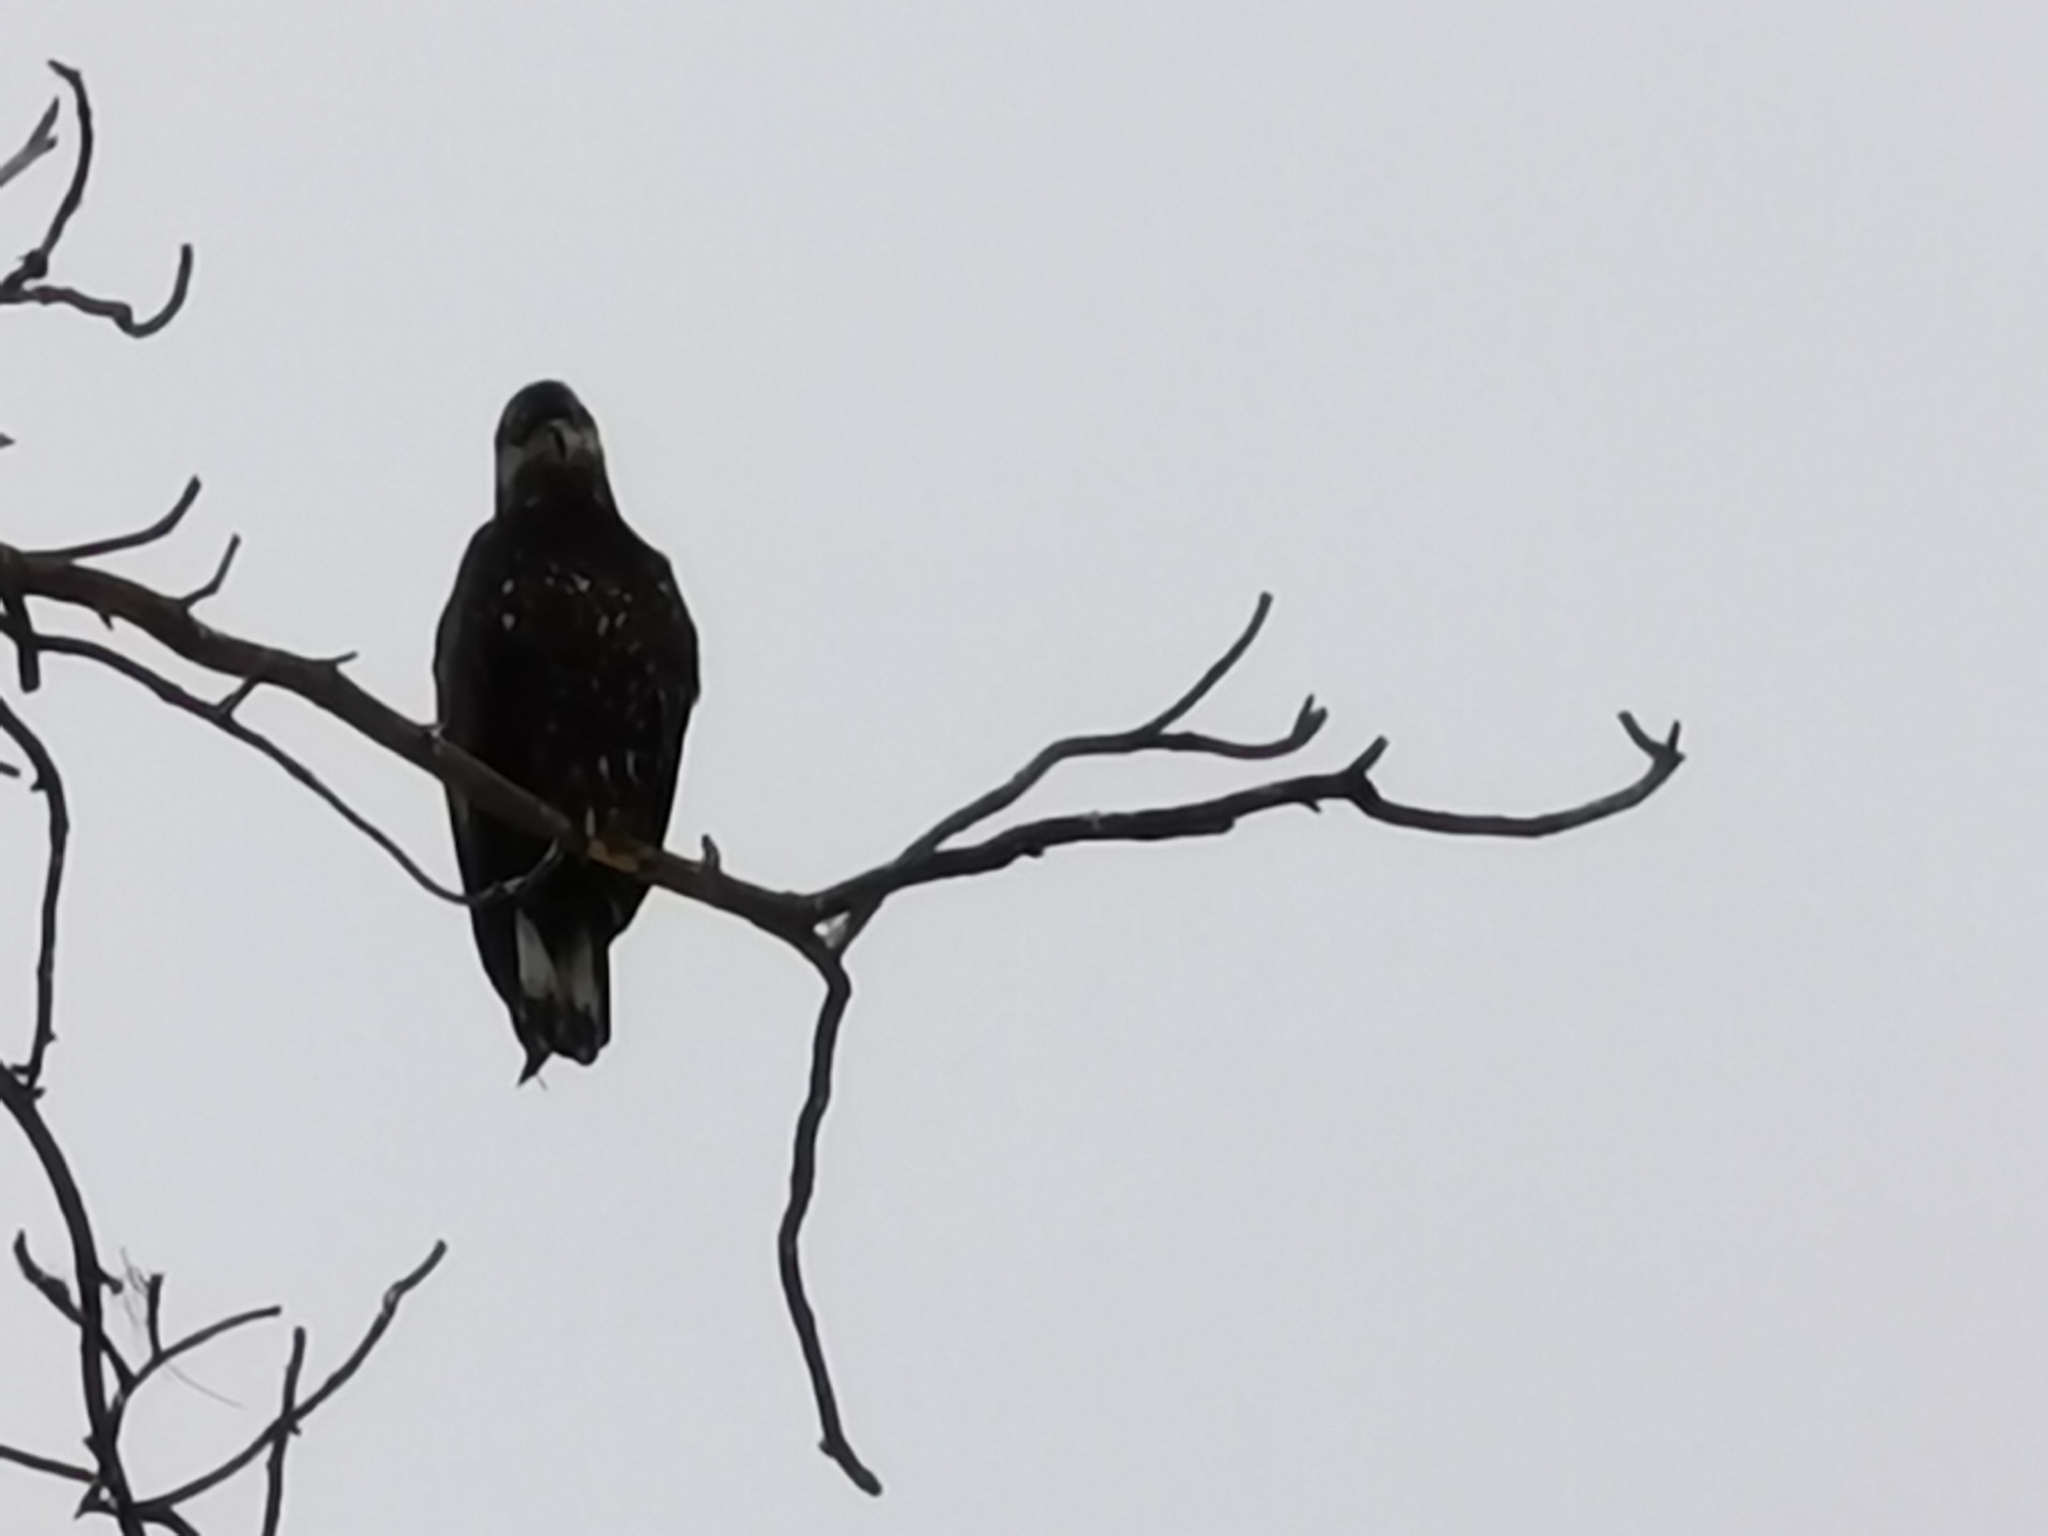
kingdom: Animalia
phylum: Chordata
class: Aves
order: Accipitriformes
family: Accipitridae
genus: Haliaeetus
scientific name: Haliaeetus leucocephalus
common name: Bald eagle
